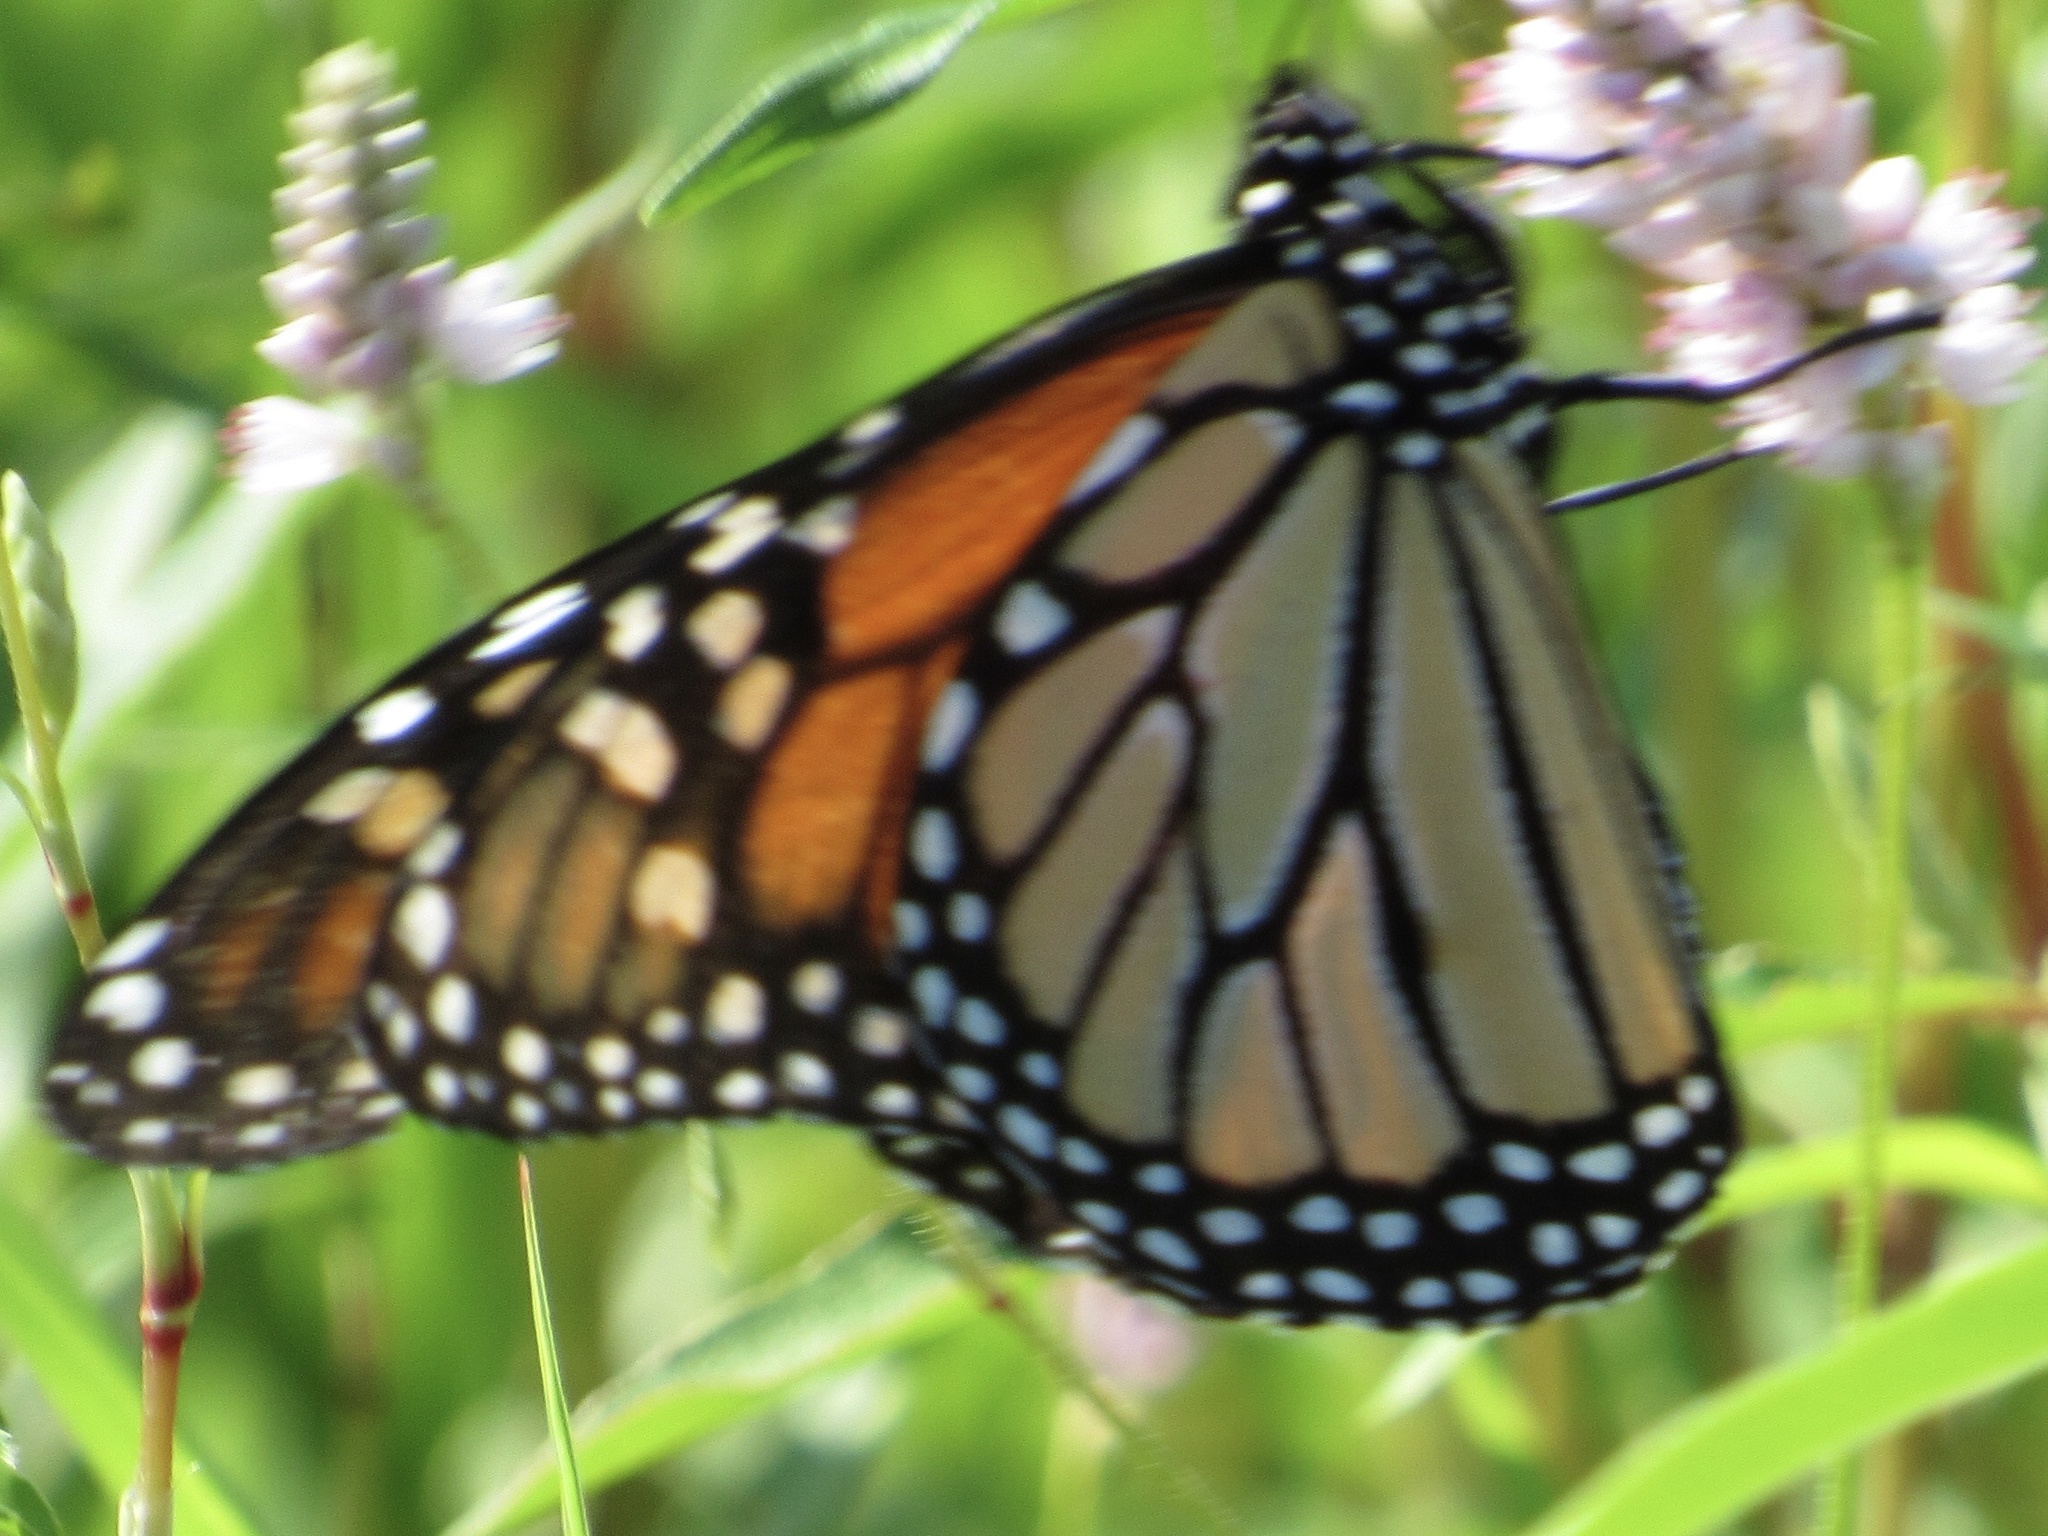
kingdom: Animalia
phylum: Arthropoda
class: Insecta
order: Lepidoptera
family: Nymphalidae
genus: Danaus
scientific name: Danaus plexippus
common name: Monarch
